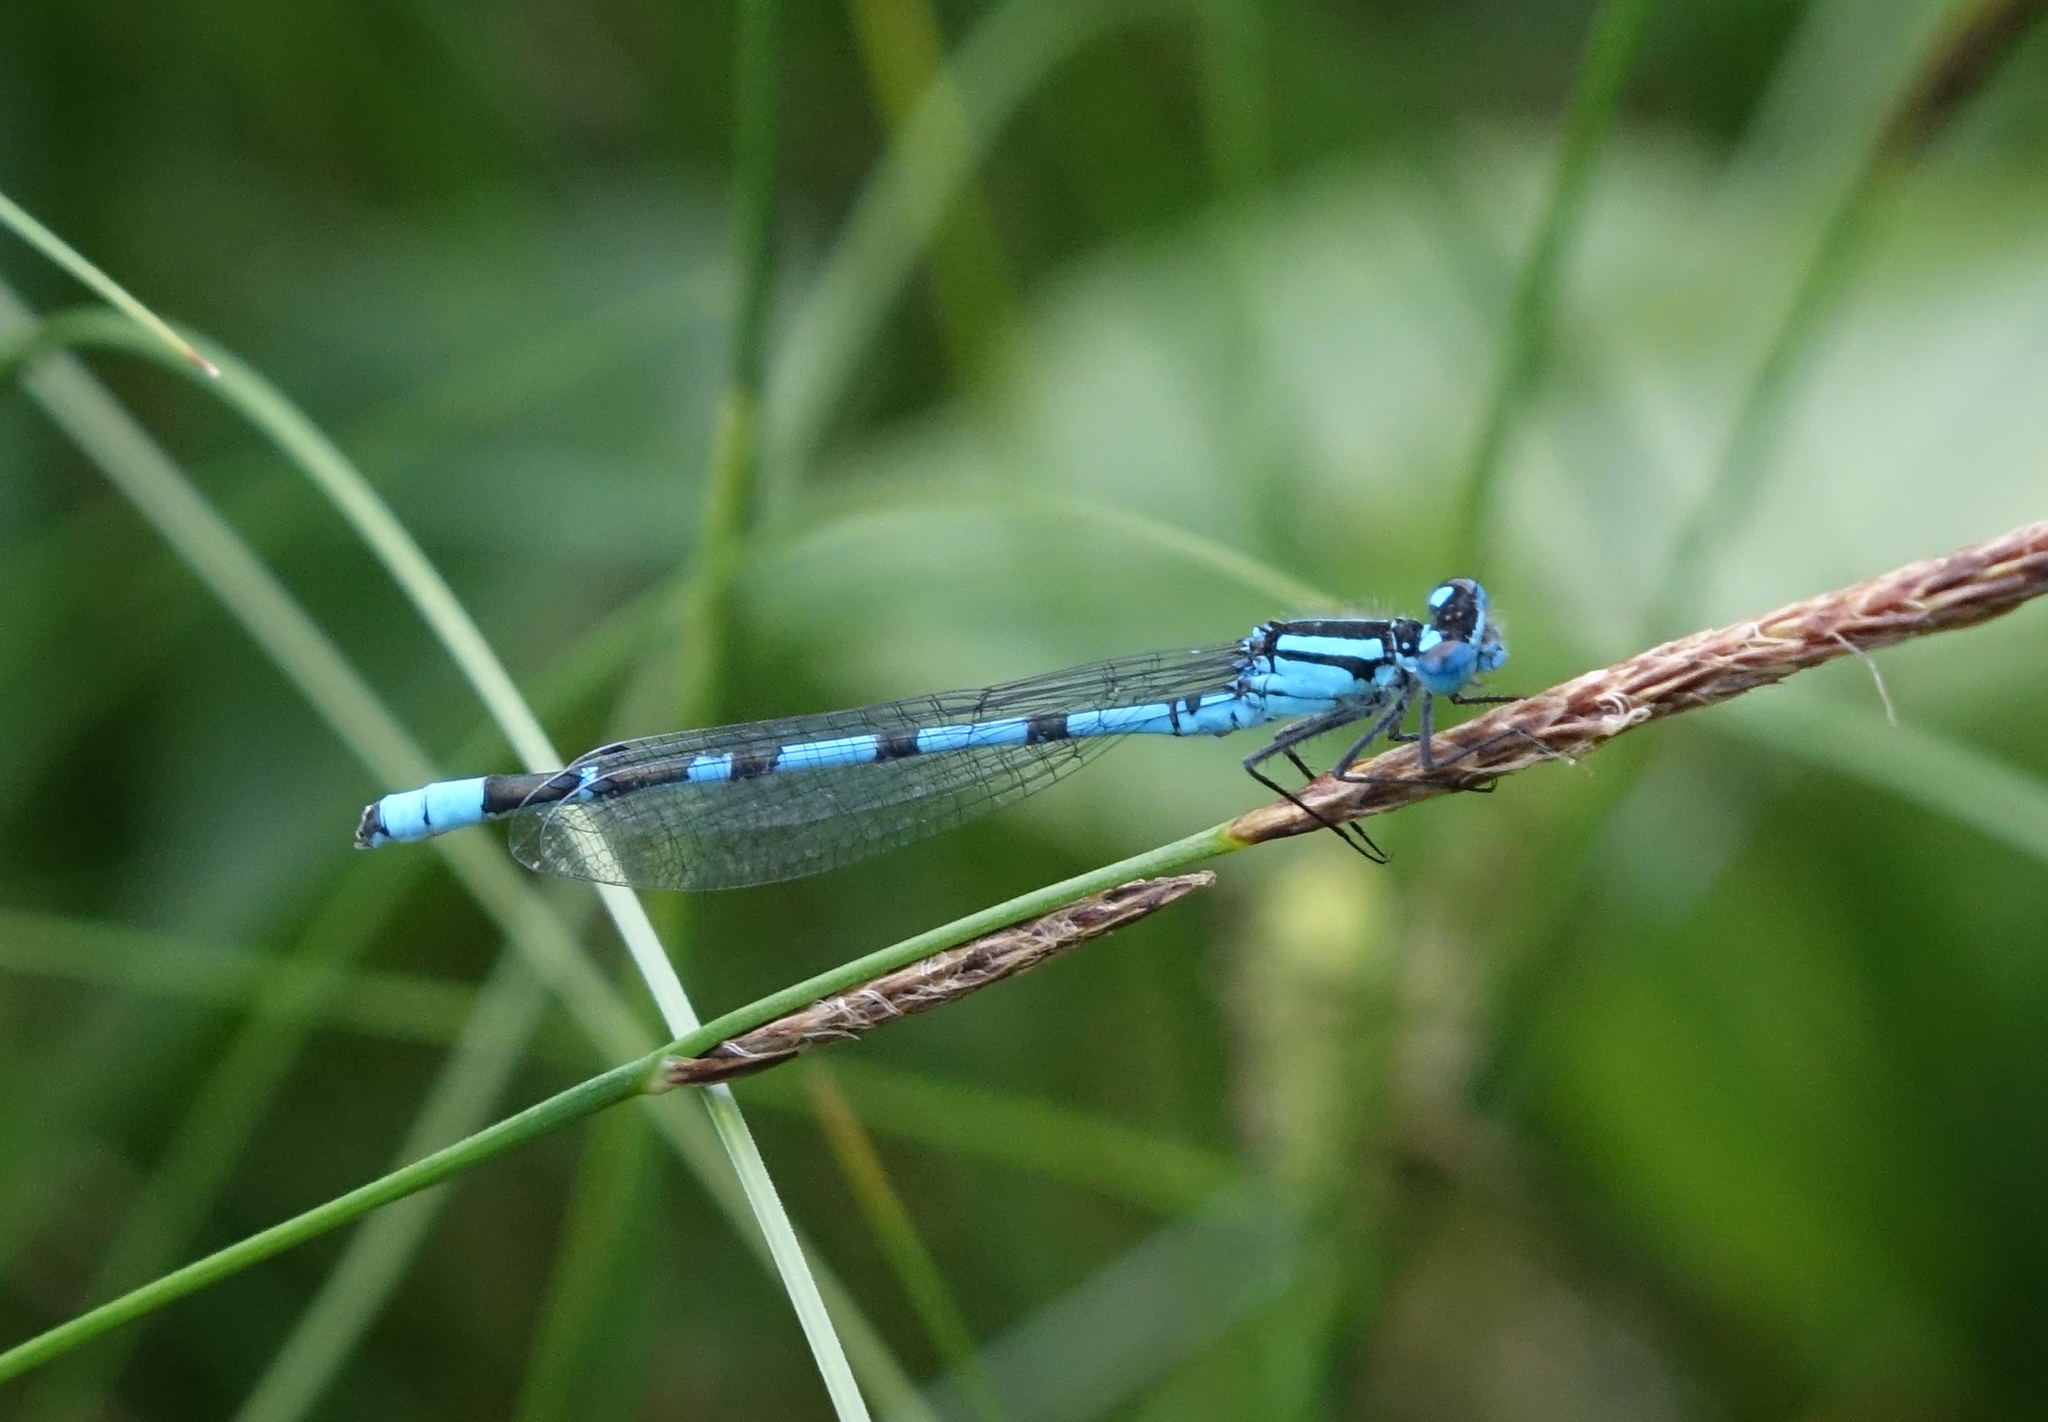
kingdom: Animalia
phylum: Arthropoda
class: Insecta
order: Odonata
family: Coenagrionidae
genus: Enallagma
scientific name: Enallagma cyathigerum
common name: Common blue damselfly
